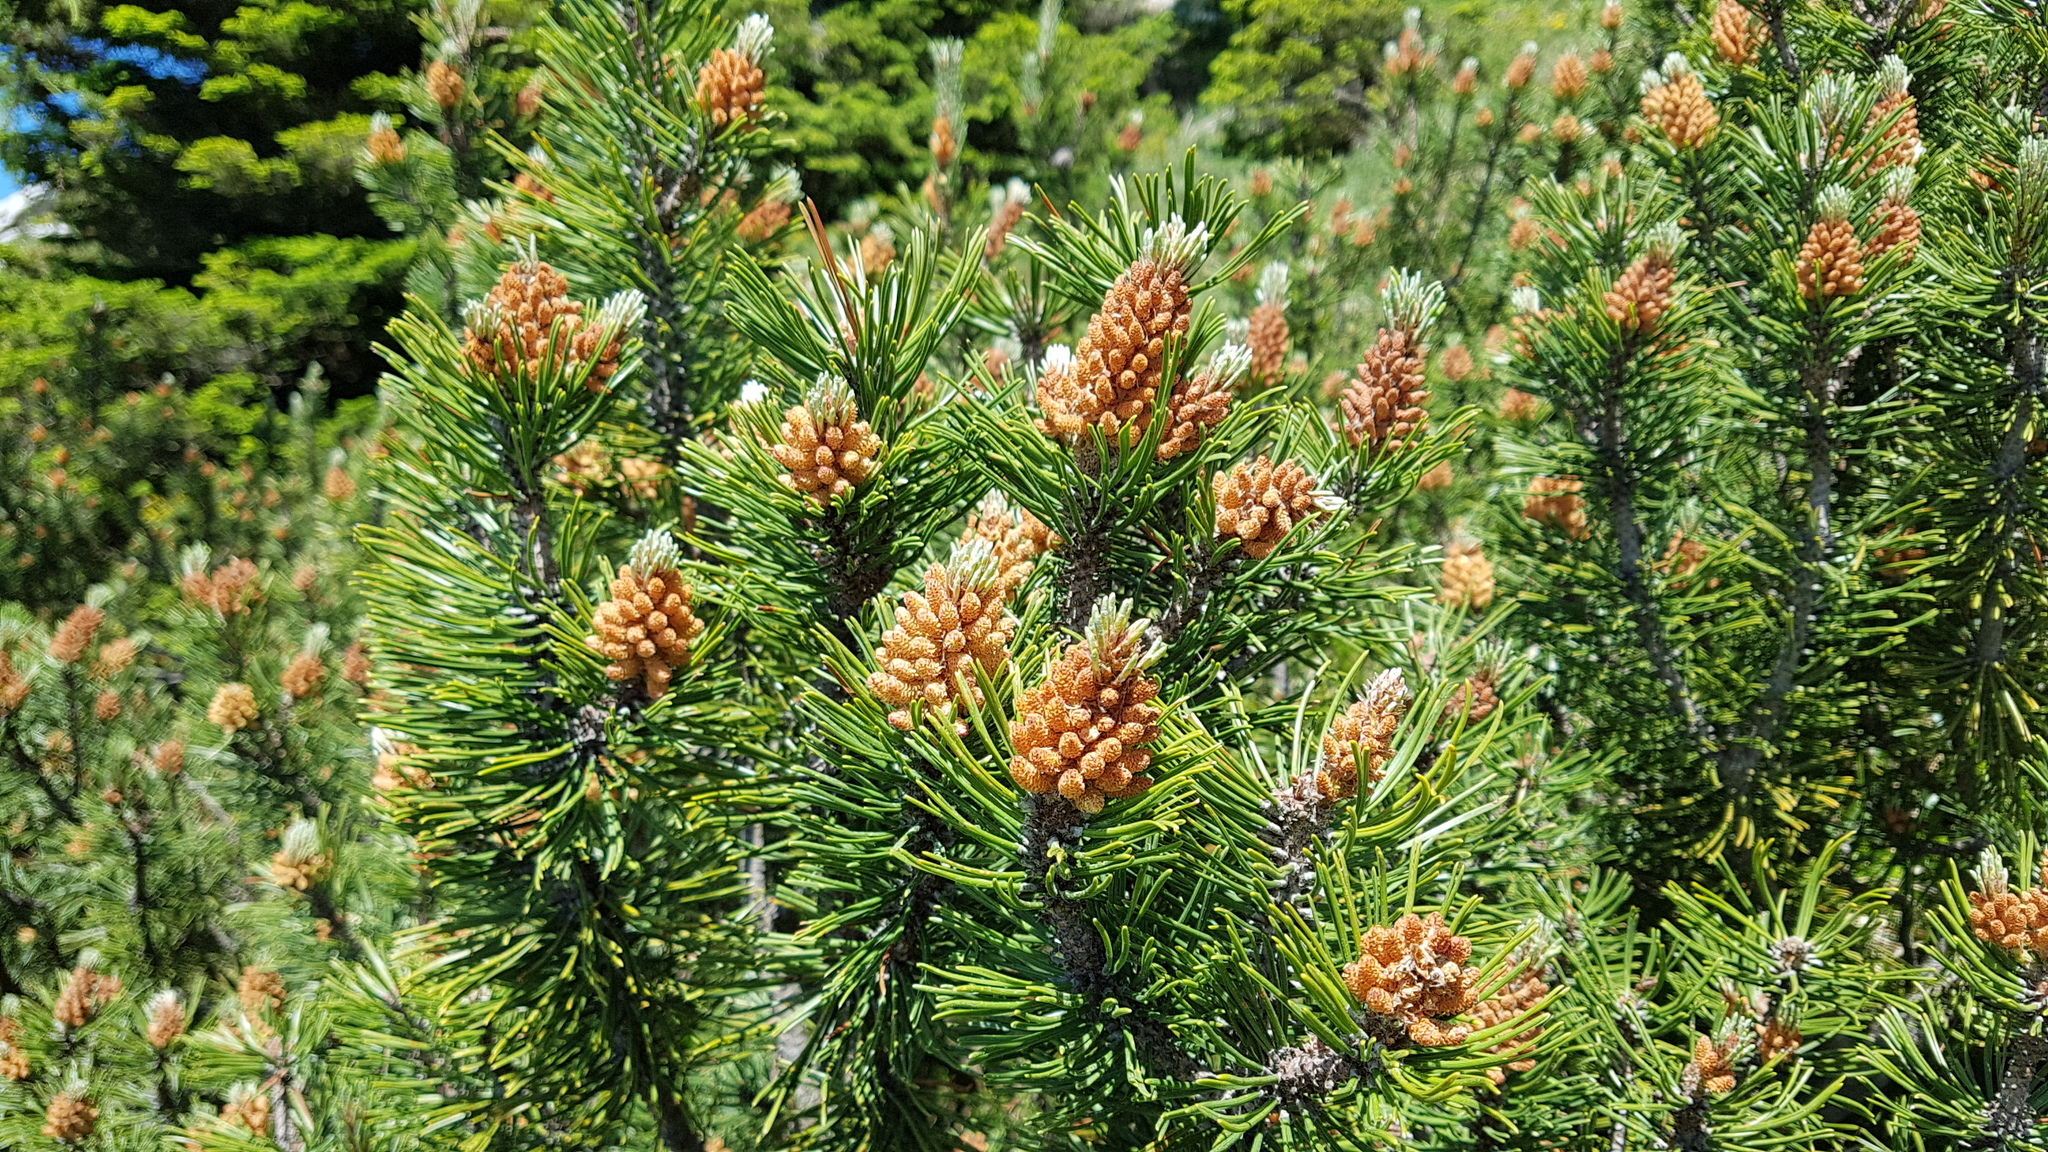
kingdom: Plantae
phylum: Tracheophyta
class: Pinopsida
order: Pinales
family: Pinaceae
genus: Pinus
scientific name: Pinus mugo
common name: Mugo pine
